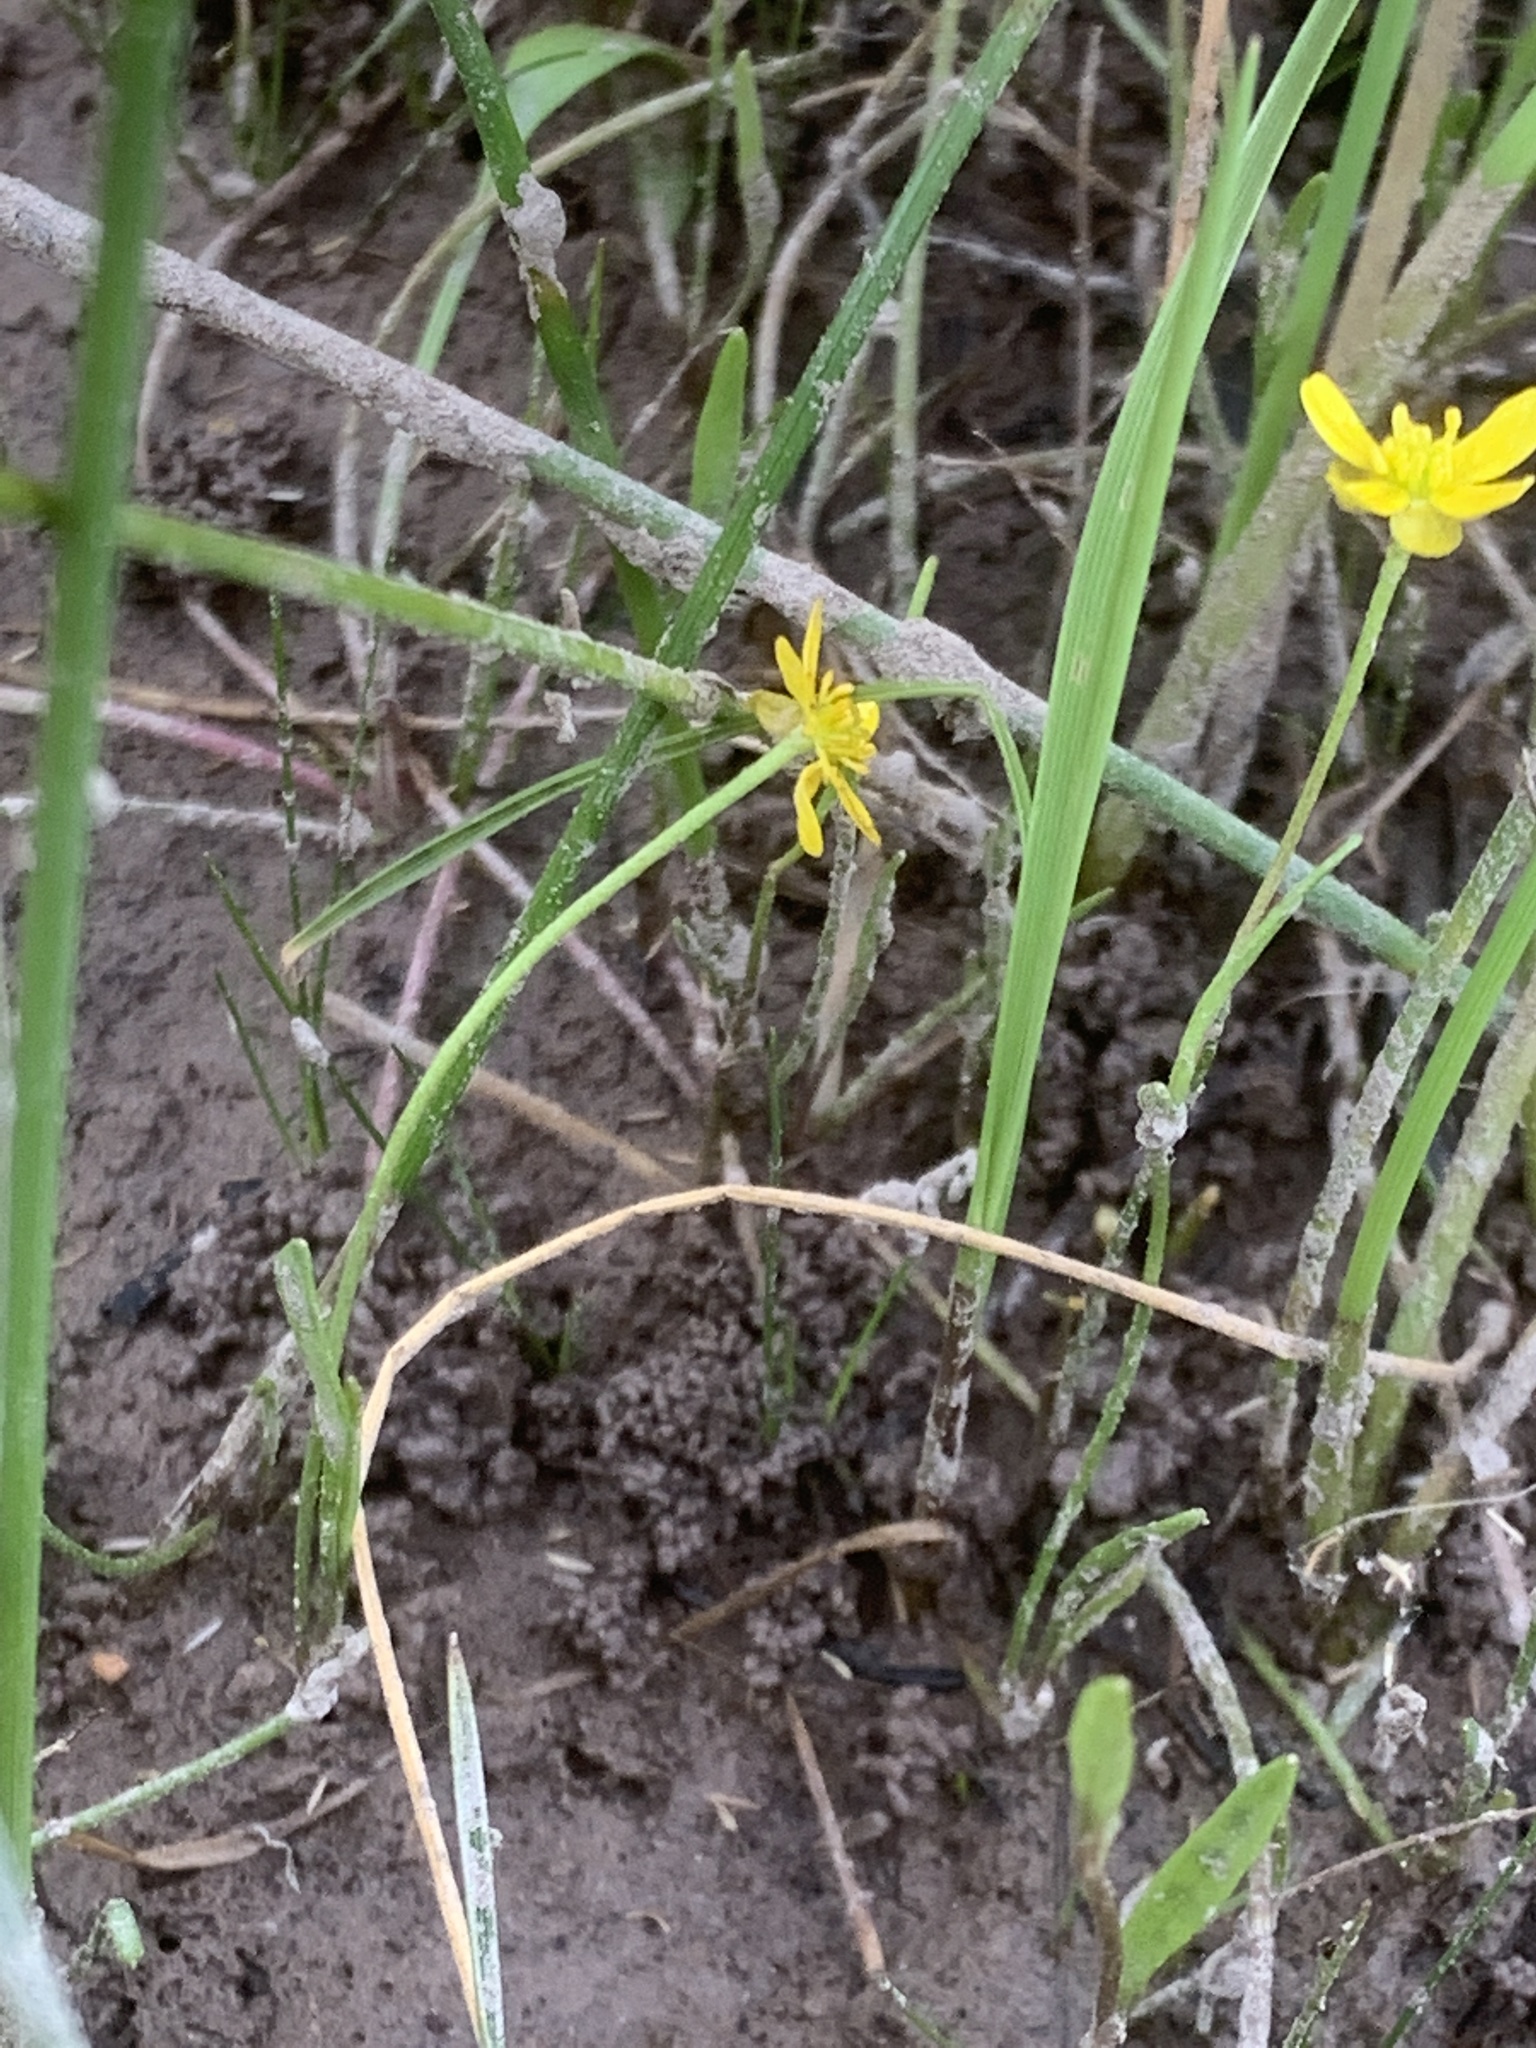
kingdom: Plantae
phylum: Tracheophyta
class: Magnoliopsida
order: Ranunculales
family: Ranunculaceae
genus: Ranunculus
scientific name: Ranunculus flammula
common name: Lesser spearwort
